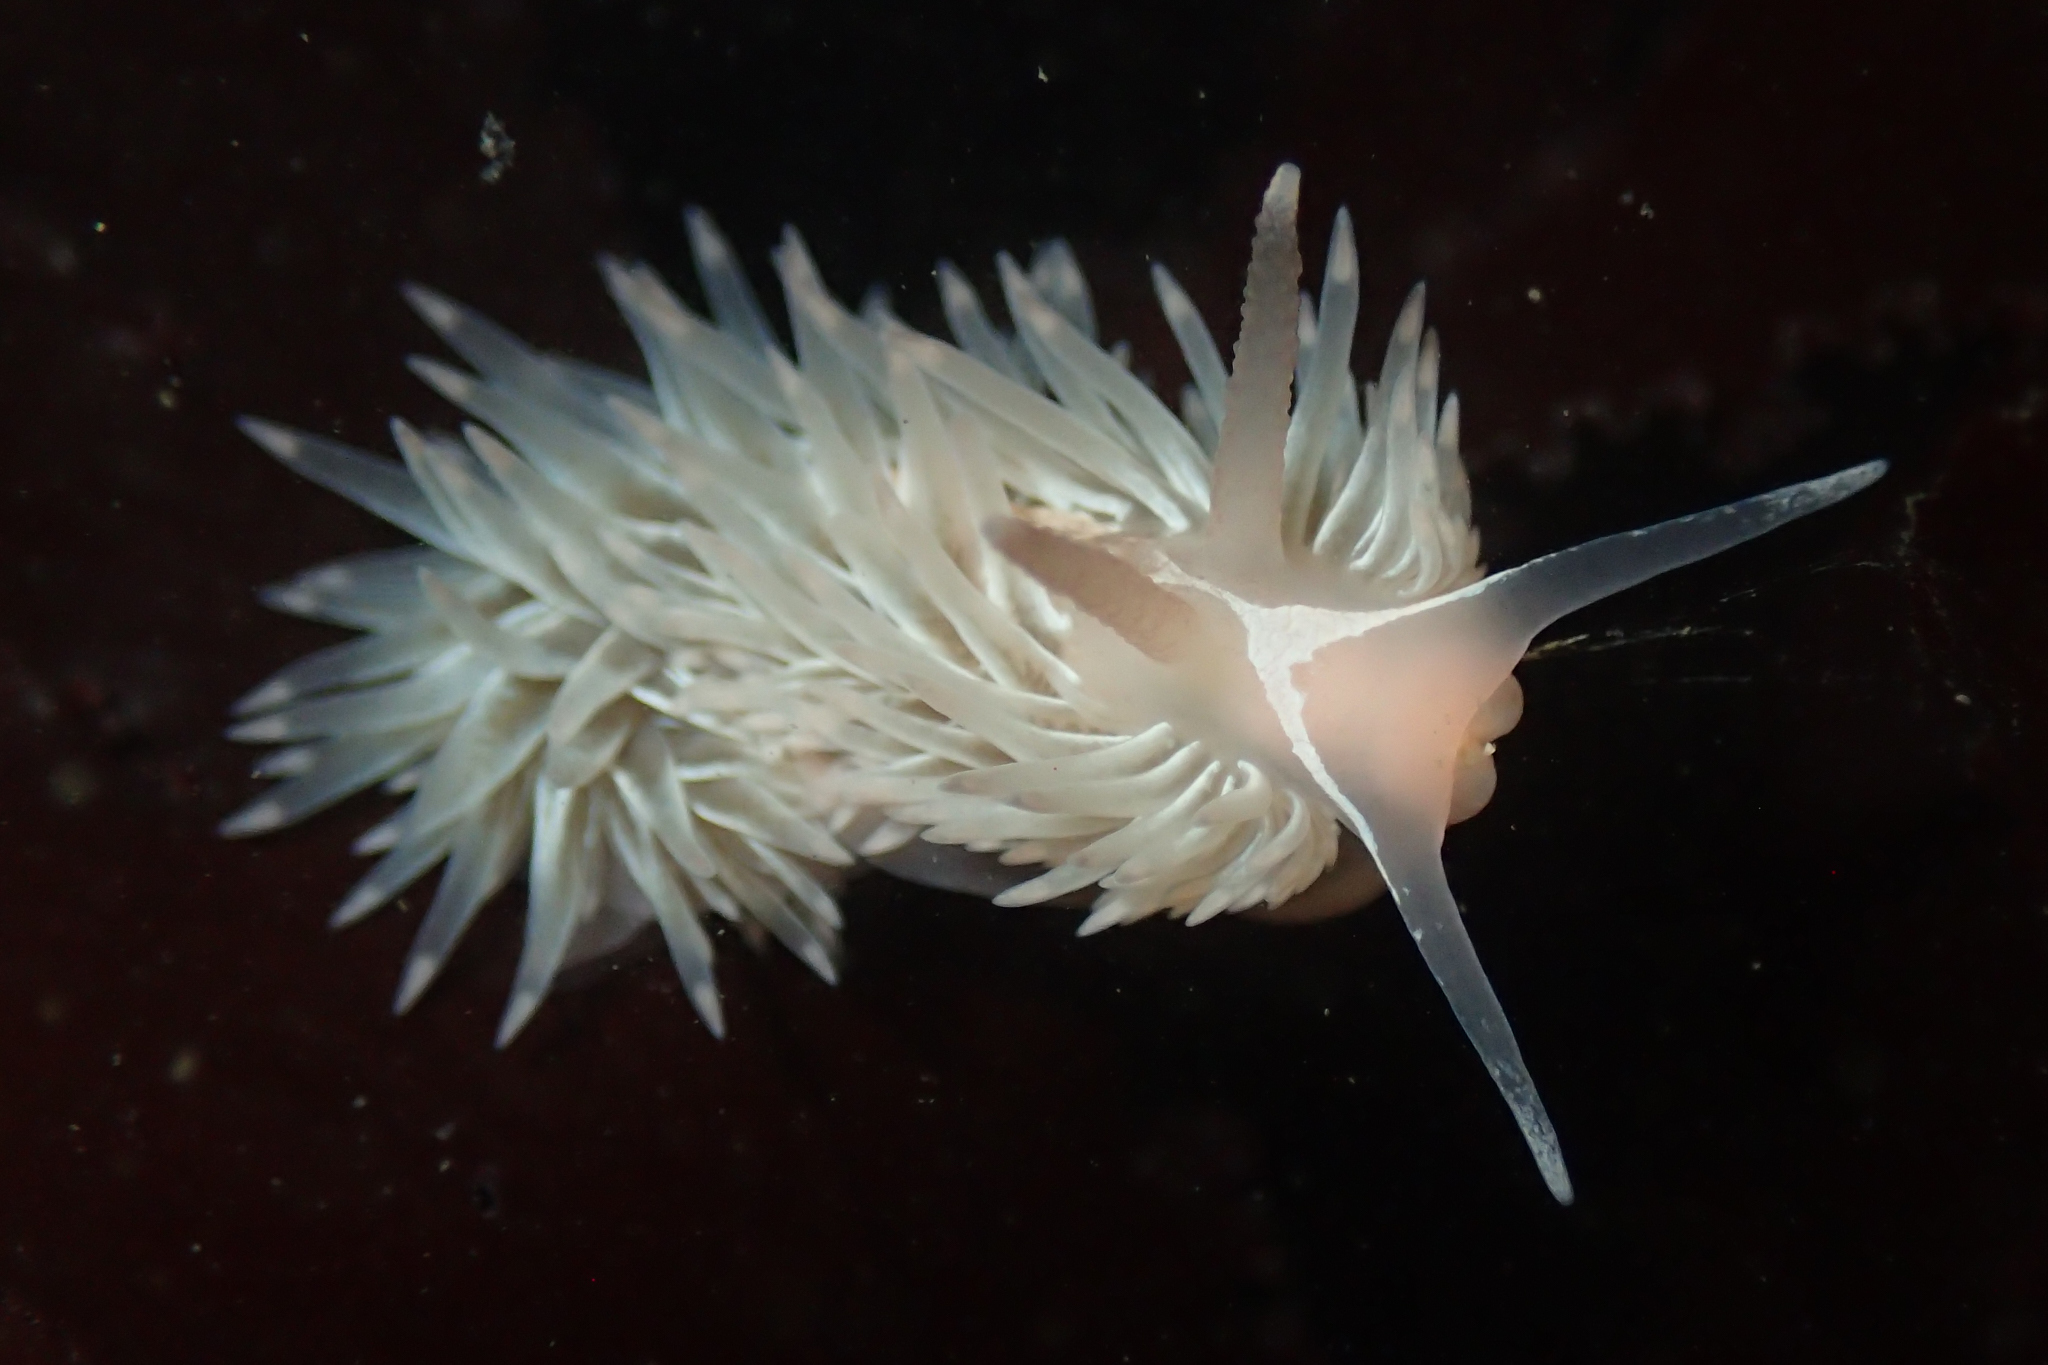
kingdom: Animalia
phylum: Mollusca
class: Gastropoda
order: Nudibranchia
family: Aeolidiidae
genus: Aeolidia
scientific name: Aeolidia loui
